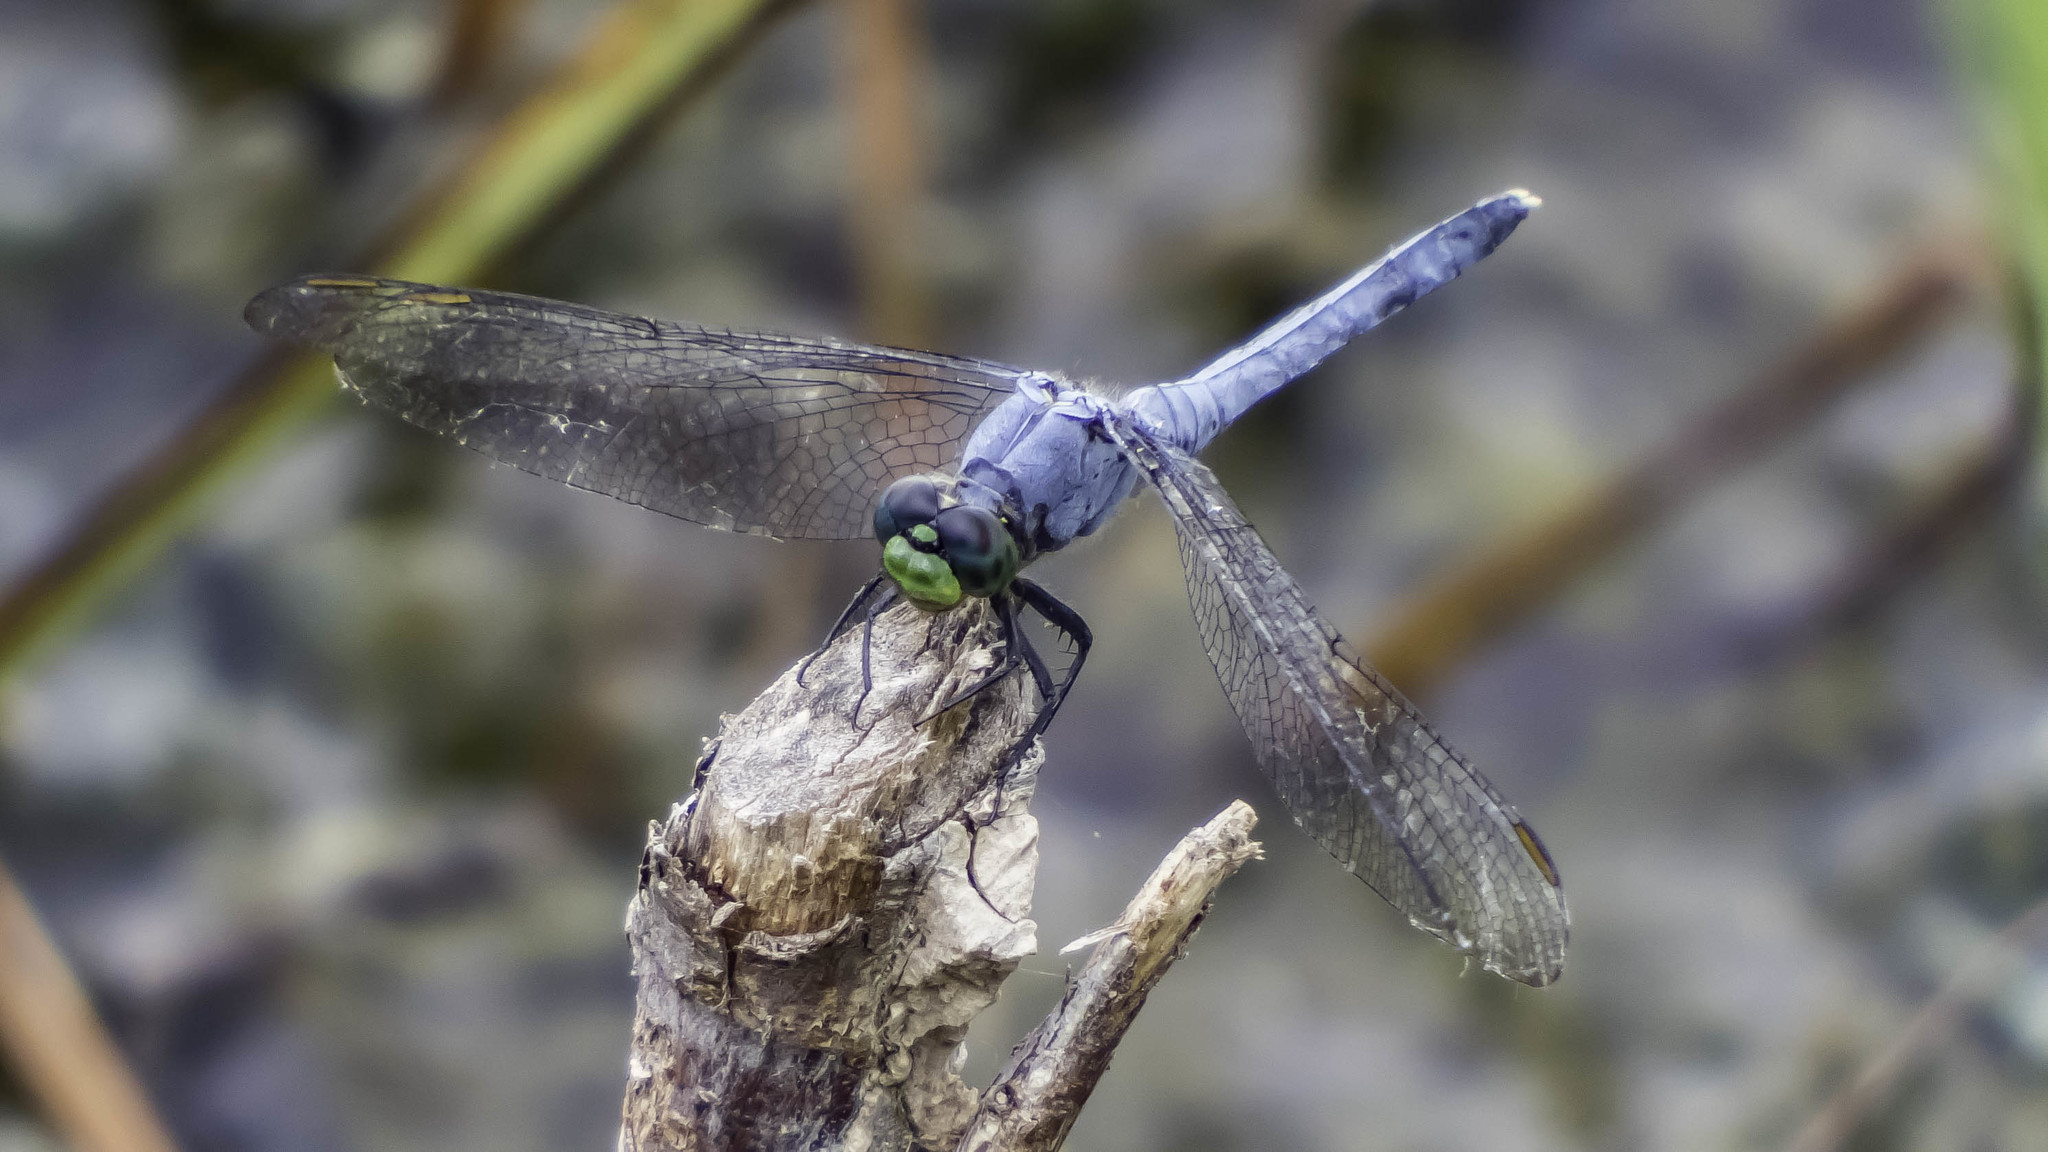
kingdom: Animalia
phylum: Arthropoda
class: Insecta
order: Odonata
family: Libellulidae
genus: Erythemis
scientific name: Erythemis simplicicollis
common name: Eastern pondhawk
